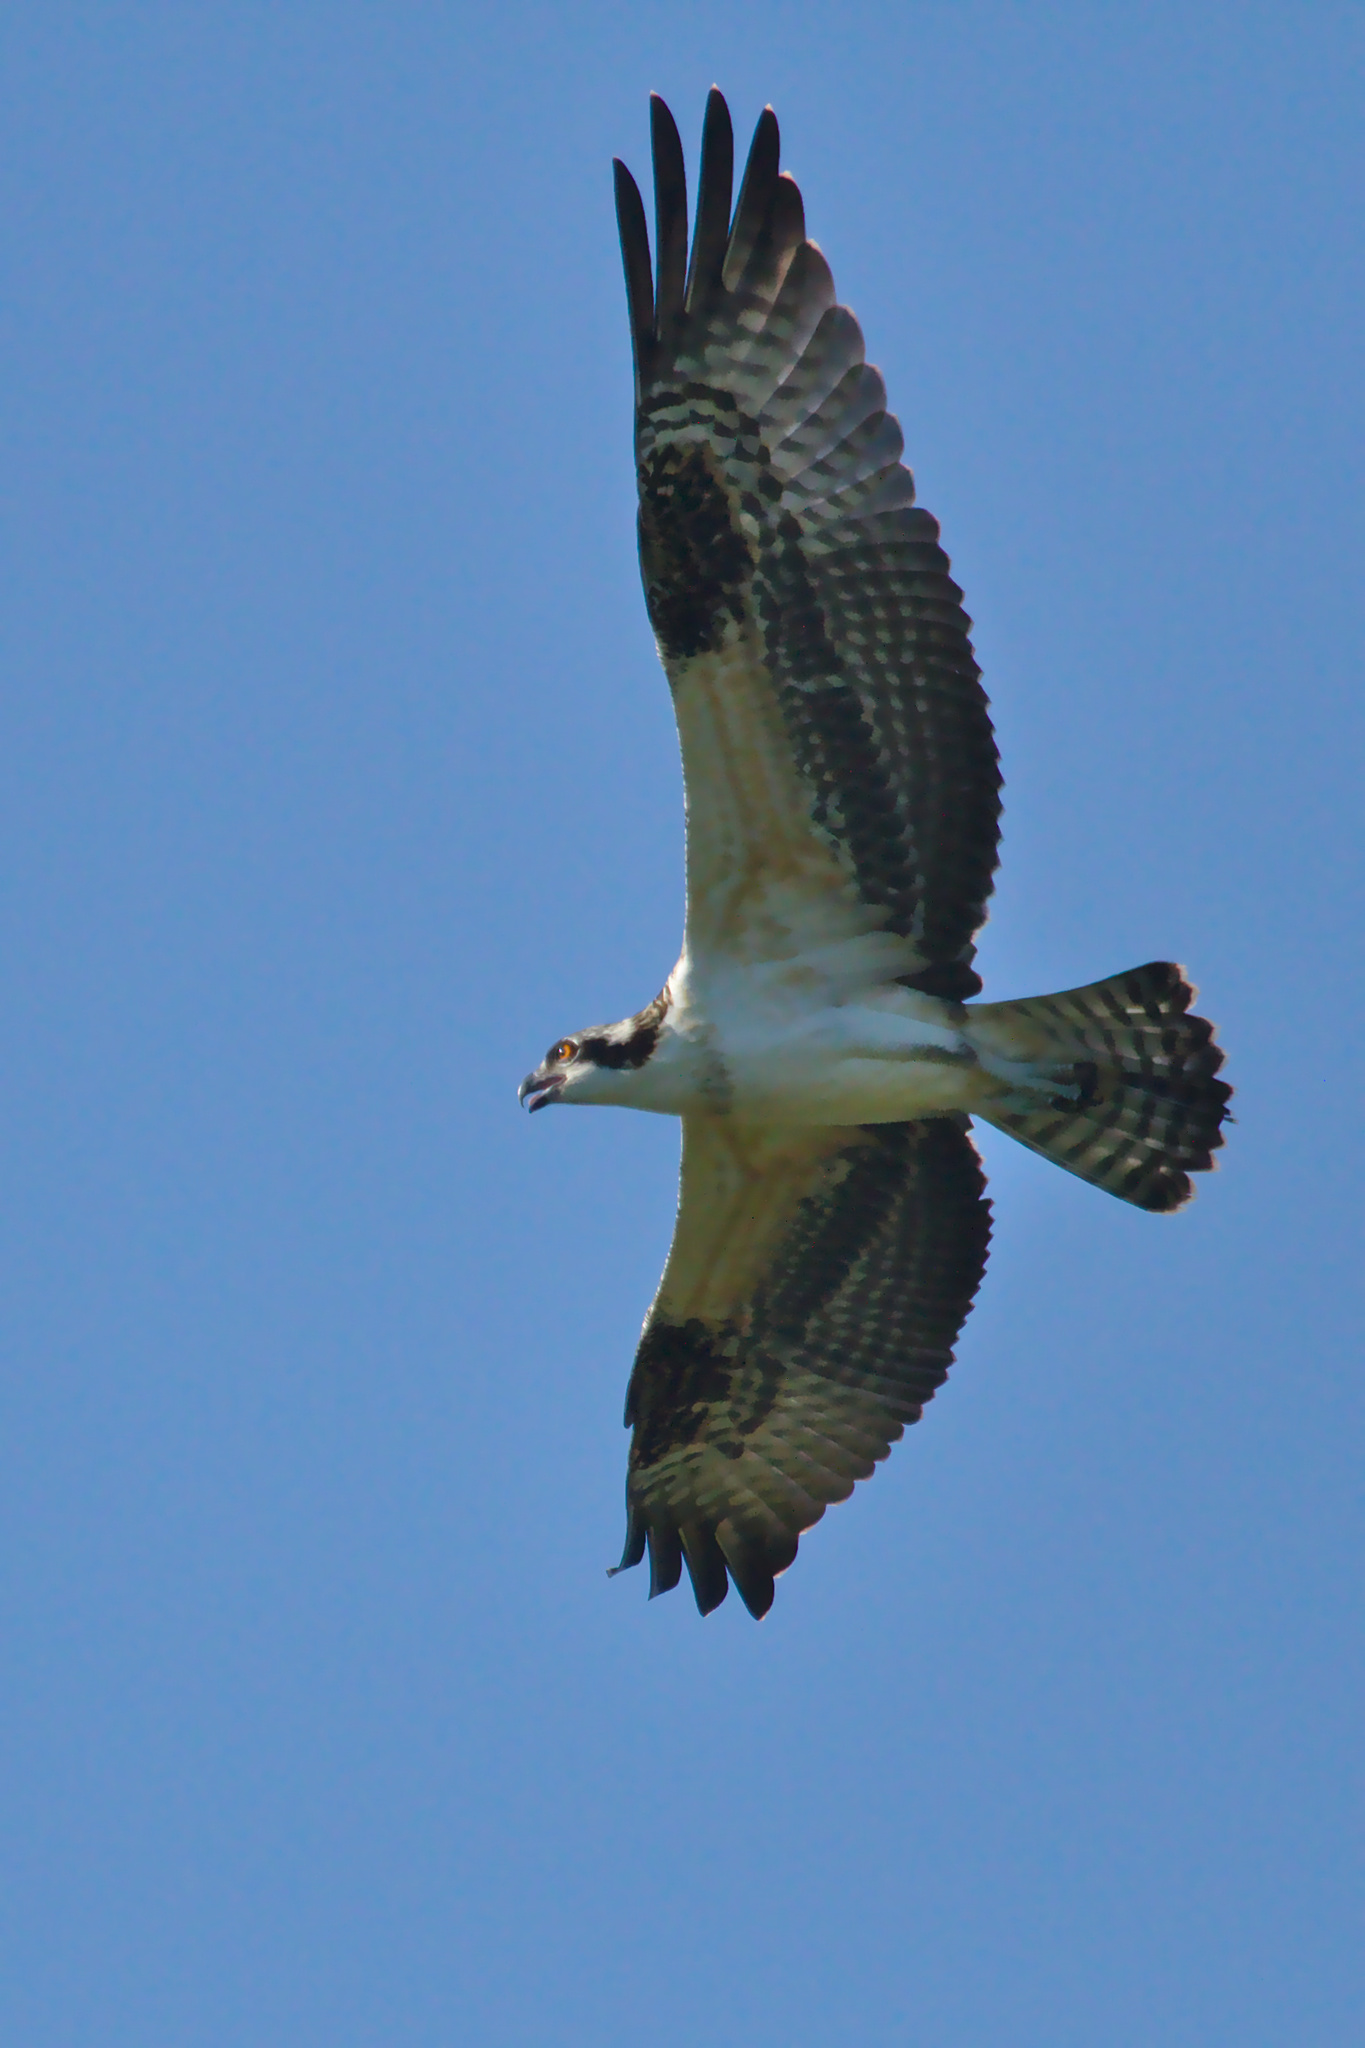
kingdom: Animalia
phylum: Chordata
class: Aves
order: Accipitriformes
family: Pandionidae
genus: Pandion
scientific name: Pandion haliaetus
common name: Osprey
